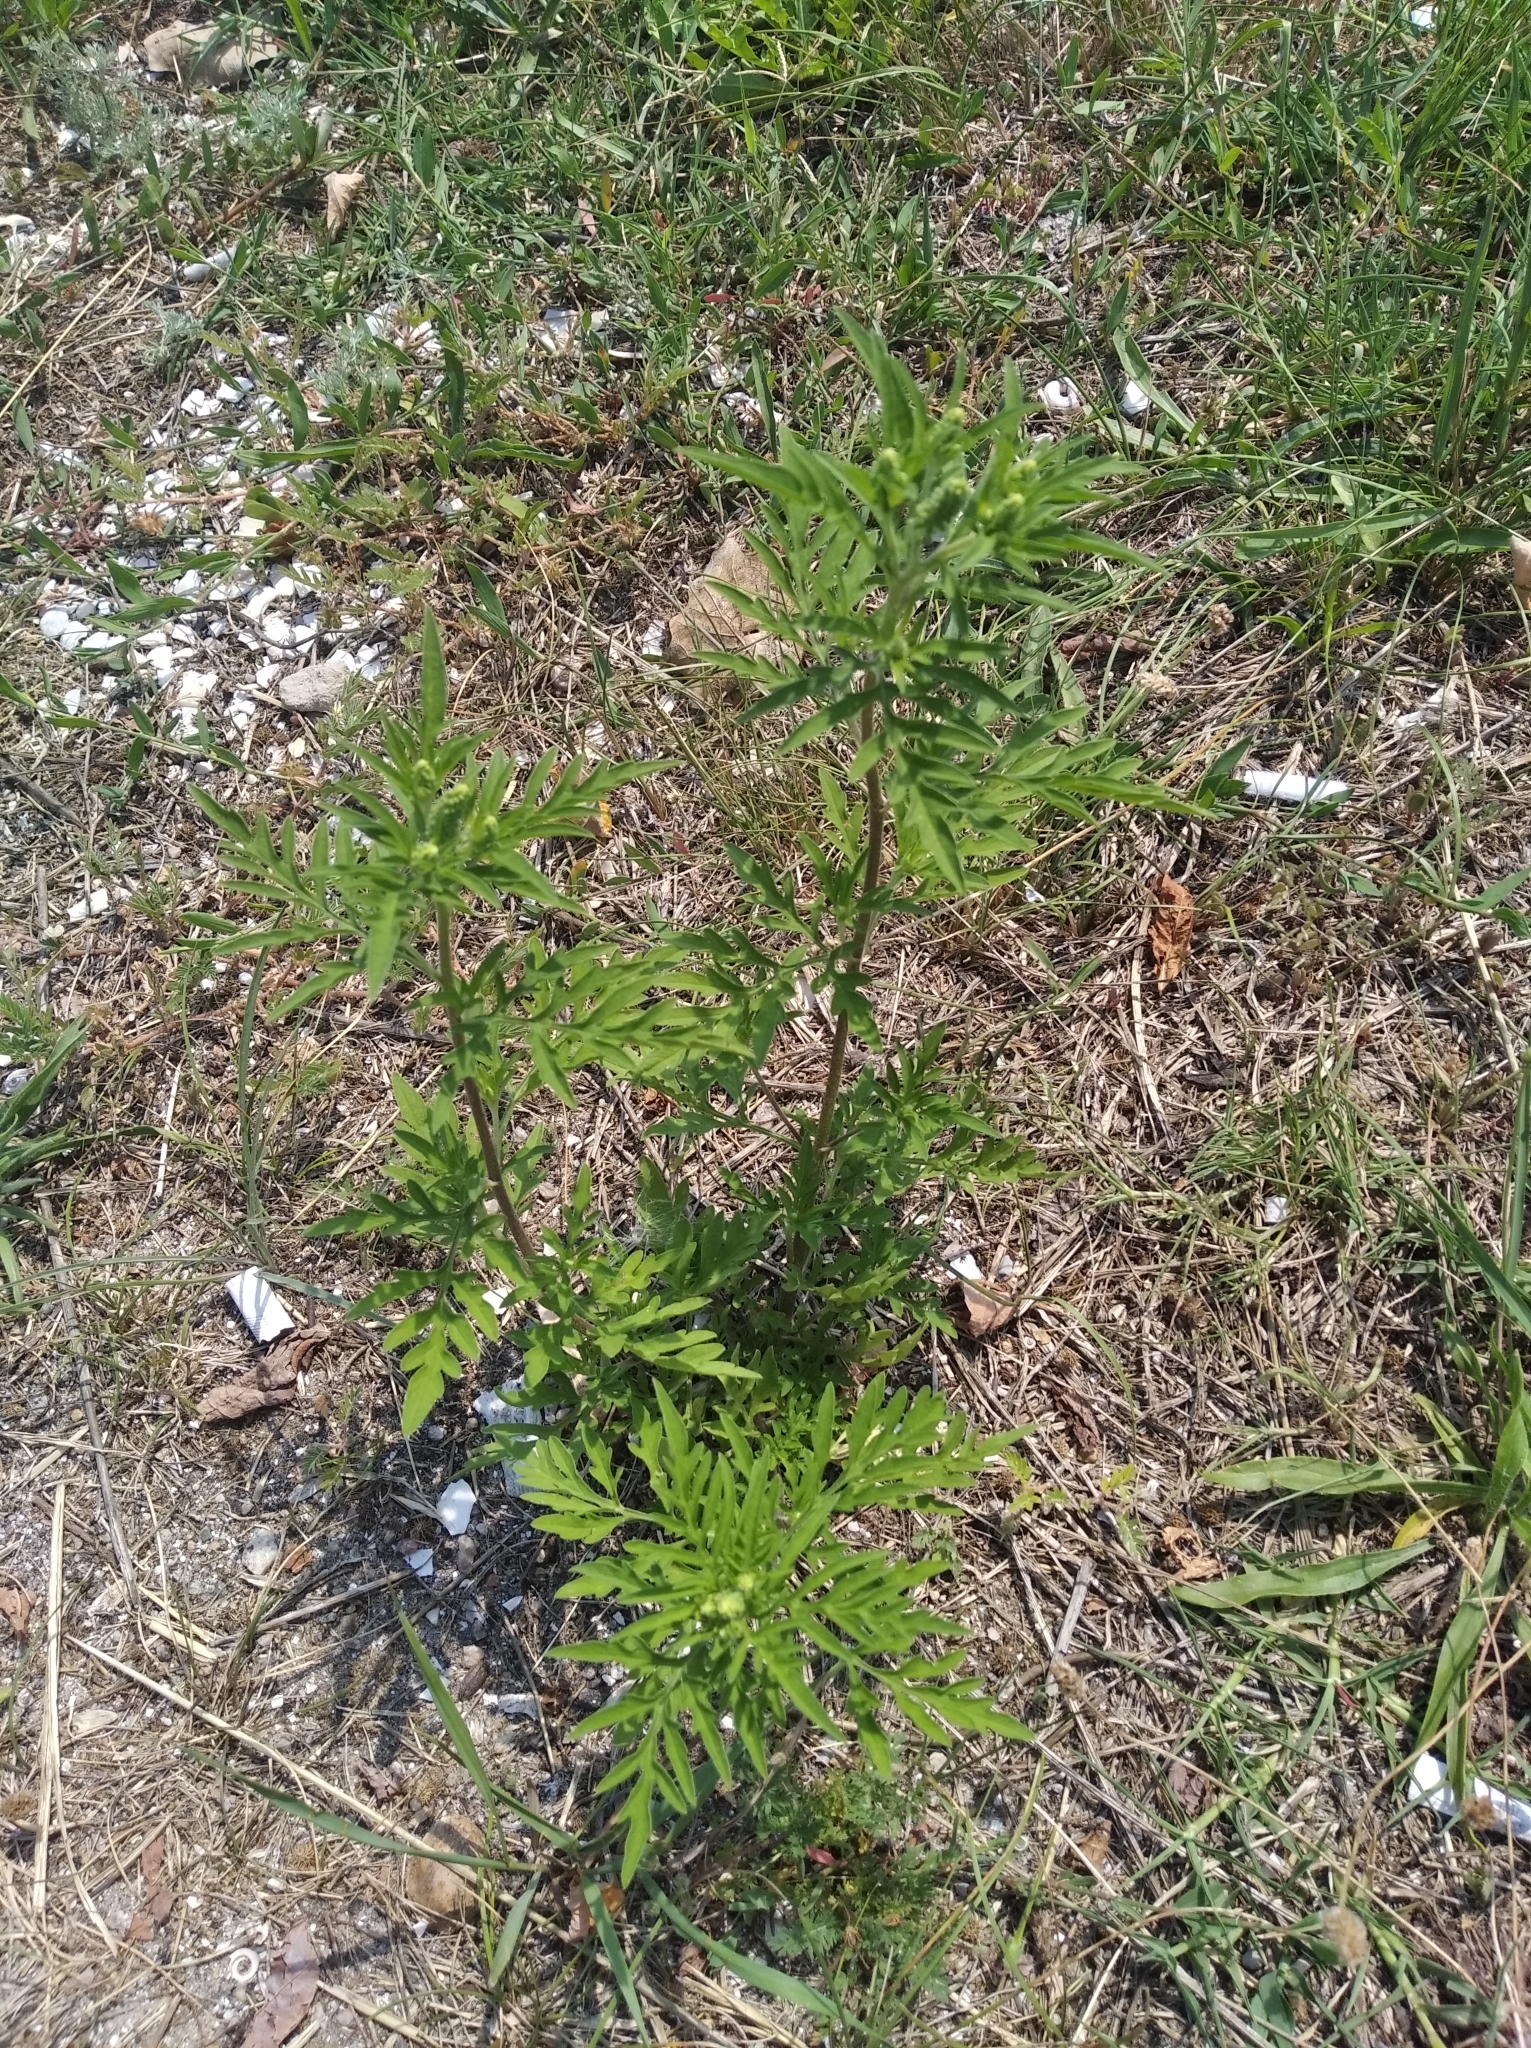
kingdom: Plantae
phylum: Tracheophyta
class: Magnoliopsida
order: Asterales
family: Asteraceae
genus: Ambrosia
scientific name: Ambrosia artemisiifolia
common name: Annual ragweed
